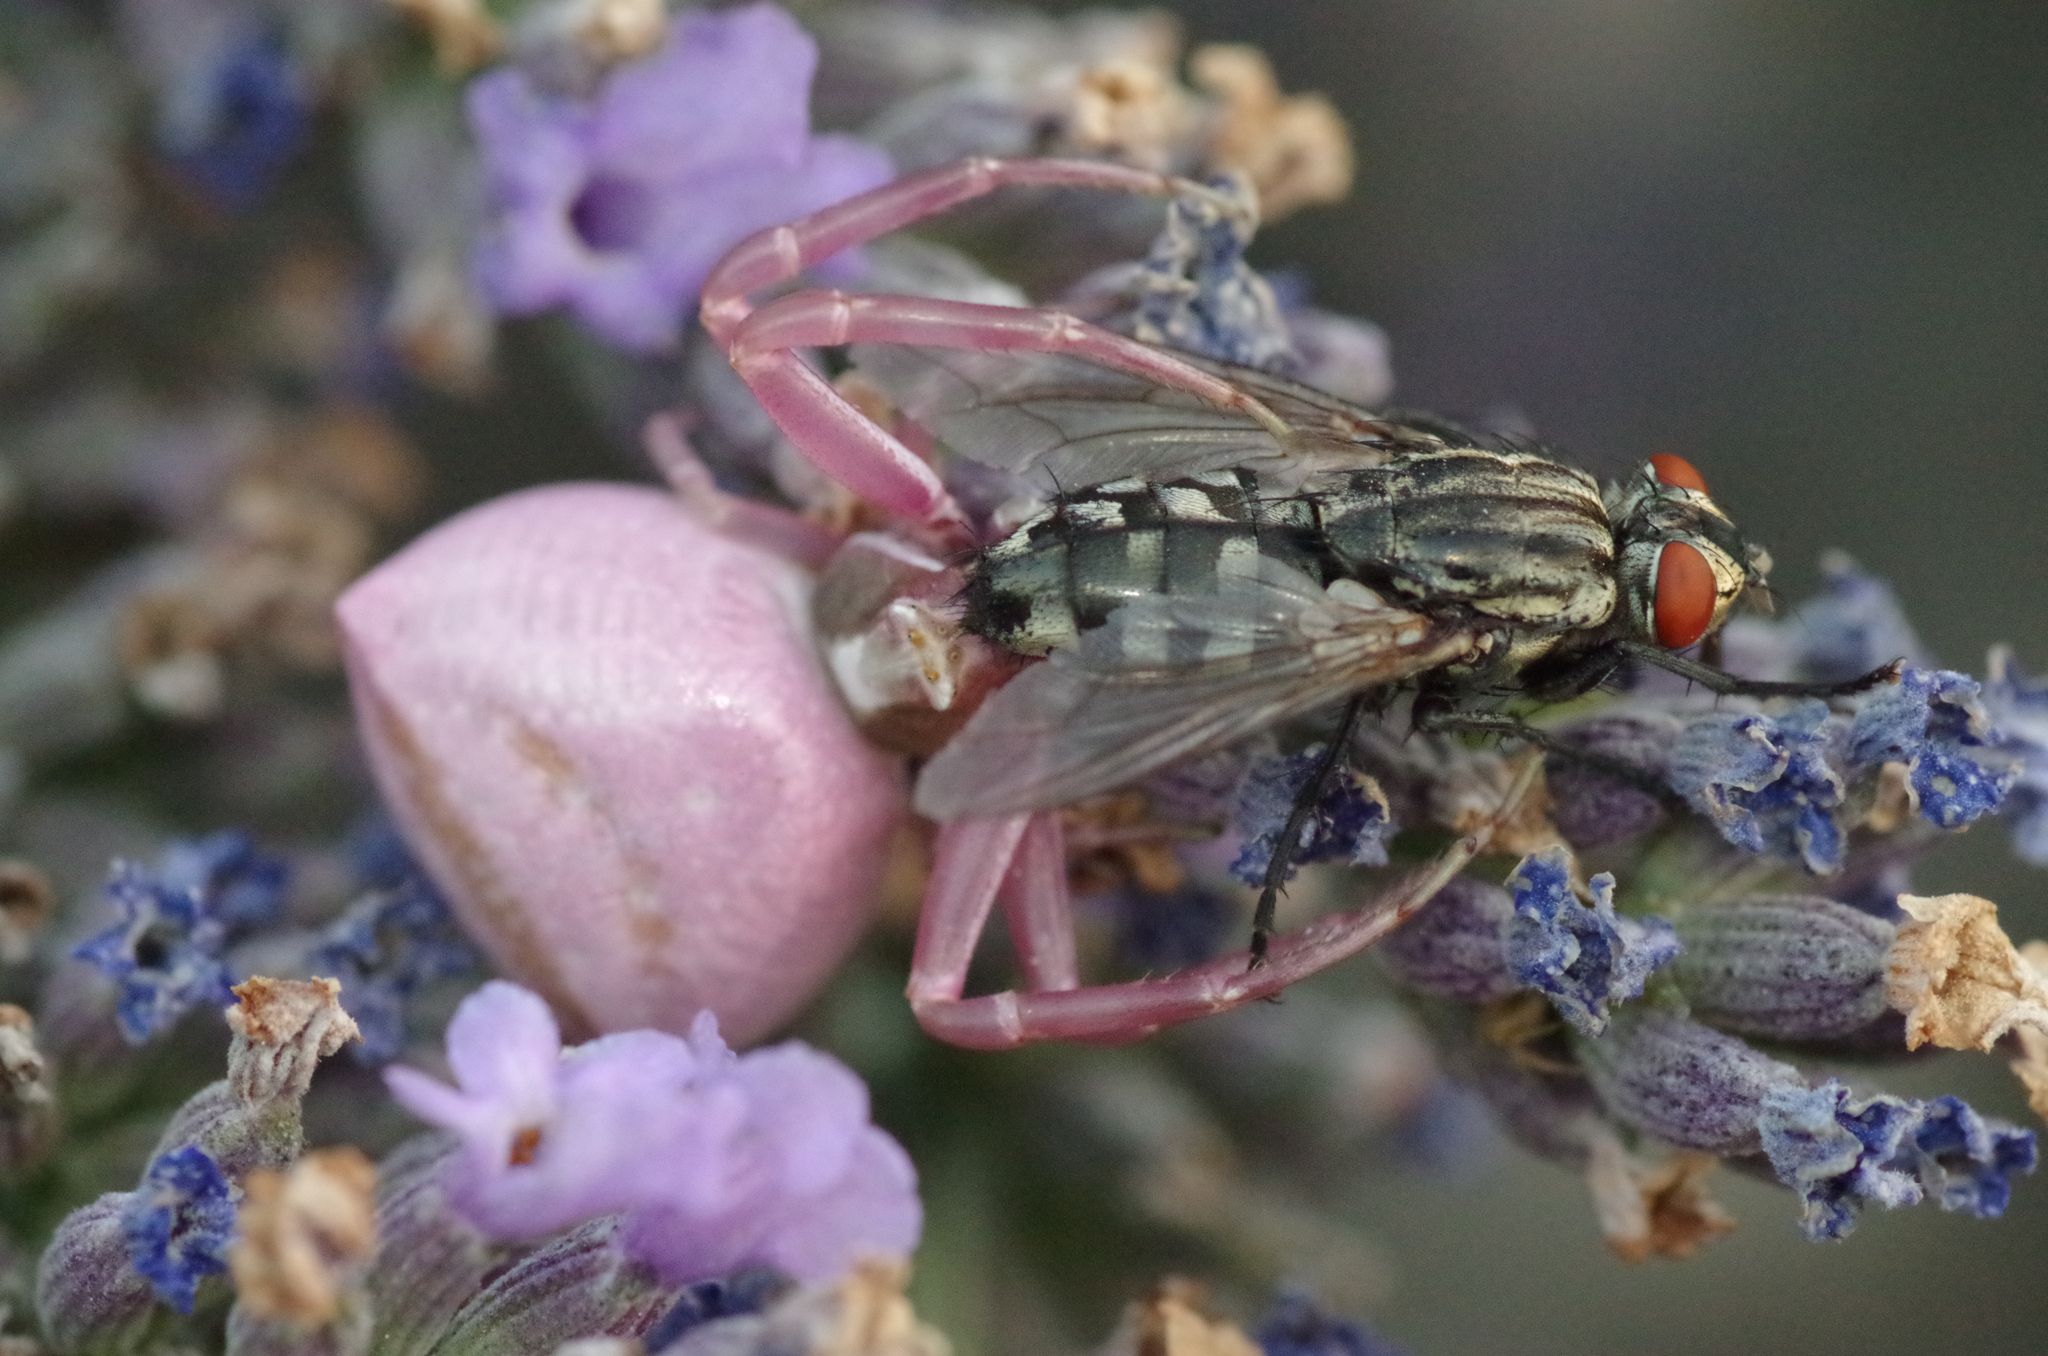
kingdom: Animalia
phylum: Arthropoda
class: Arachnida
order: Araneae
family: Thomisidae
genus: Thomisus
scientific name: Thomisus onustus
